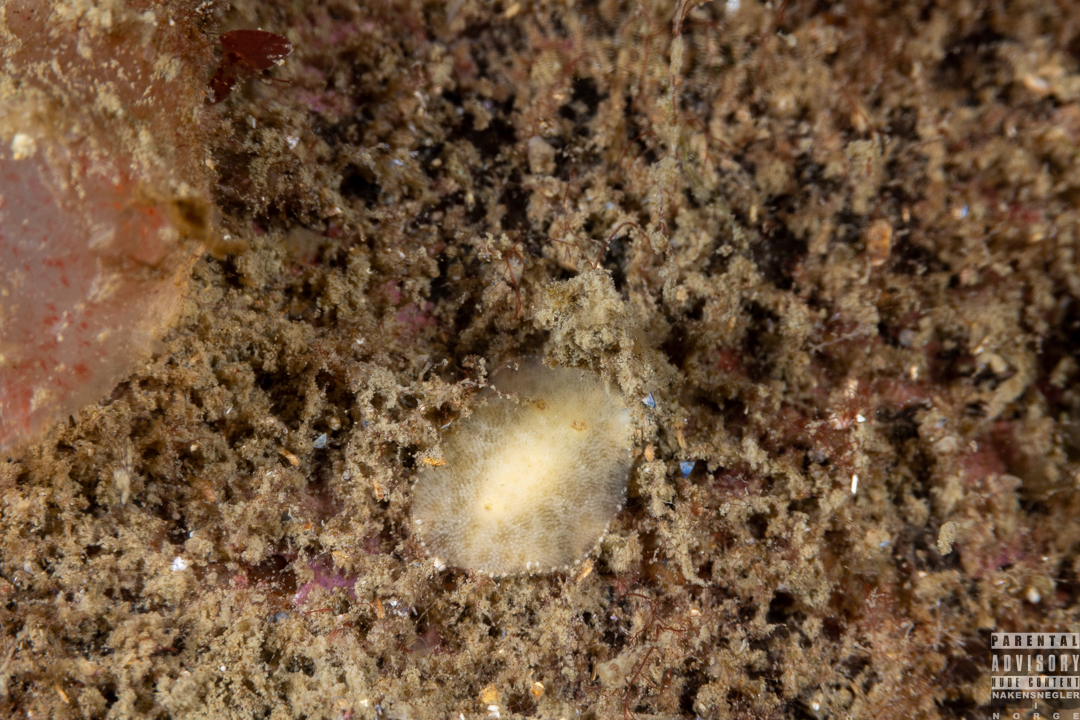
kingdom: Animalia
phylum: Mollusca
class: Gastropoda
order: Nudibranchia
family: Discodorididae
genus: Jorunna
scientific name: Jorunna tomentosa
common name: Grey sea slug
